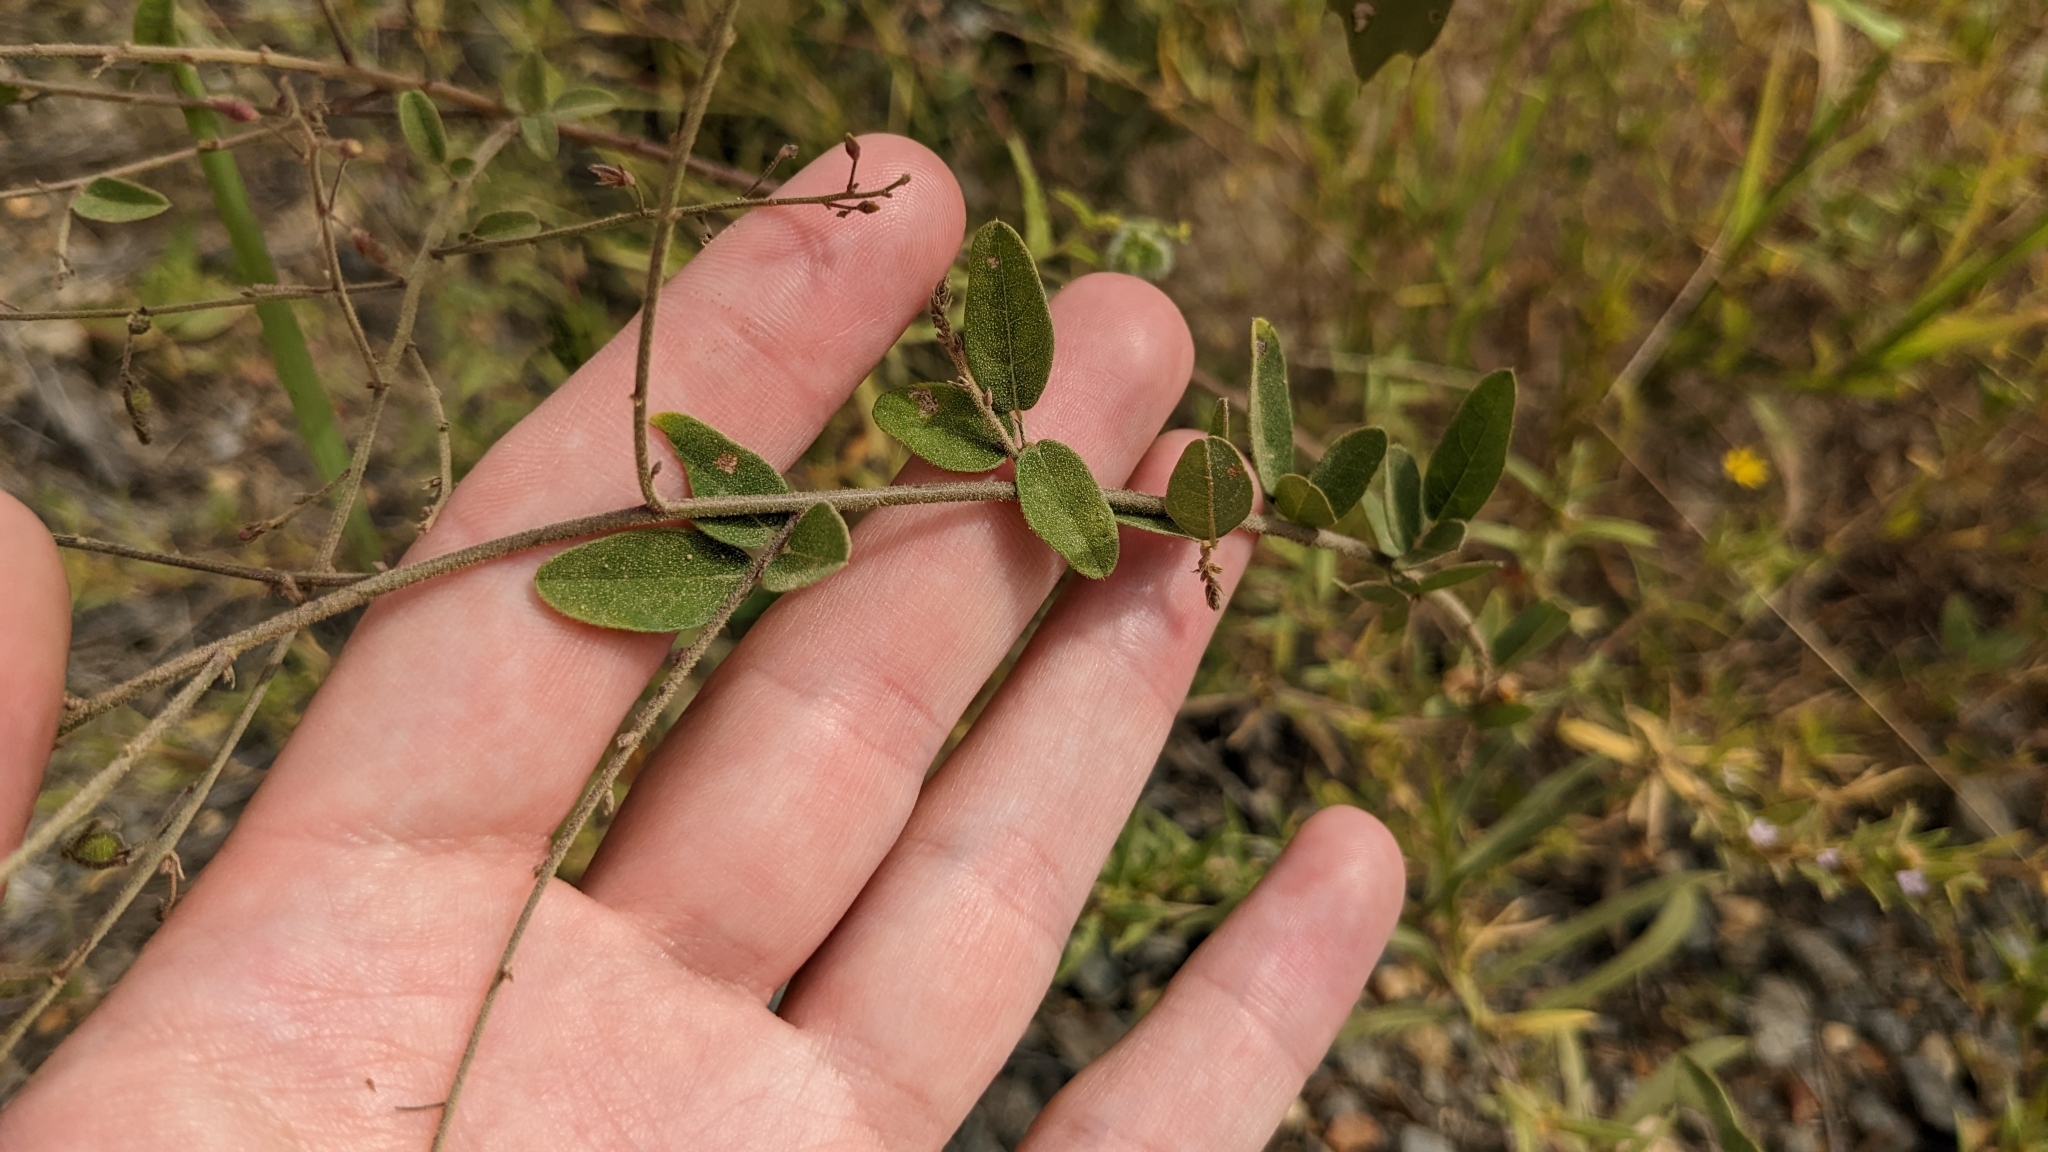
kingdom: Plantae
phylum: Tracheophyta
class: Magnoliopsida
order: Fabales
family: Fabaceae
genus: Desmodium
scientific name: Desmodium ciliare
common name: Hairy small-leaf ticktrefoil
